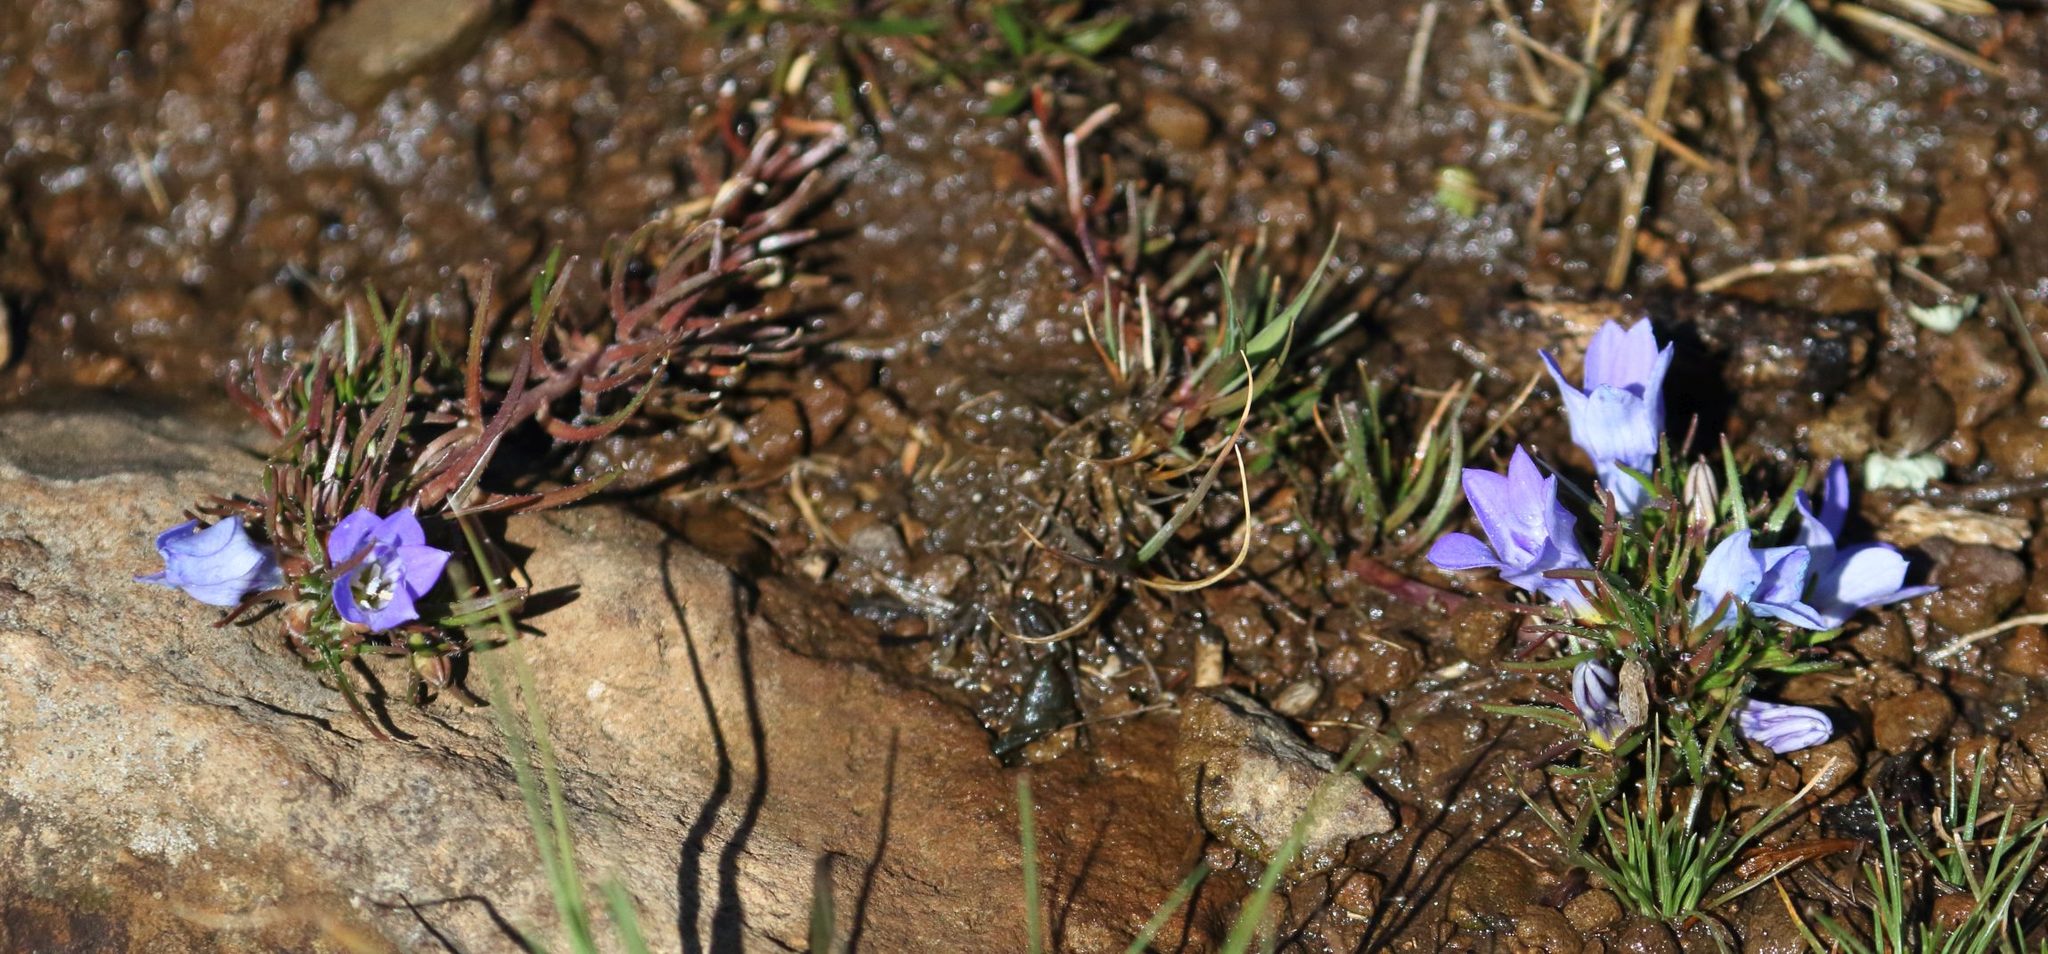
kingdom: Plantae
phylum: Tracheophyta
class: Magnoliopsida
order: Asterales
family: Campanulaceae
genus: Wahlenbergia
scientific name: Wahlenbergia polytrichifolia
